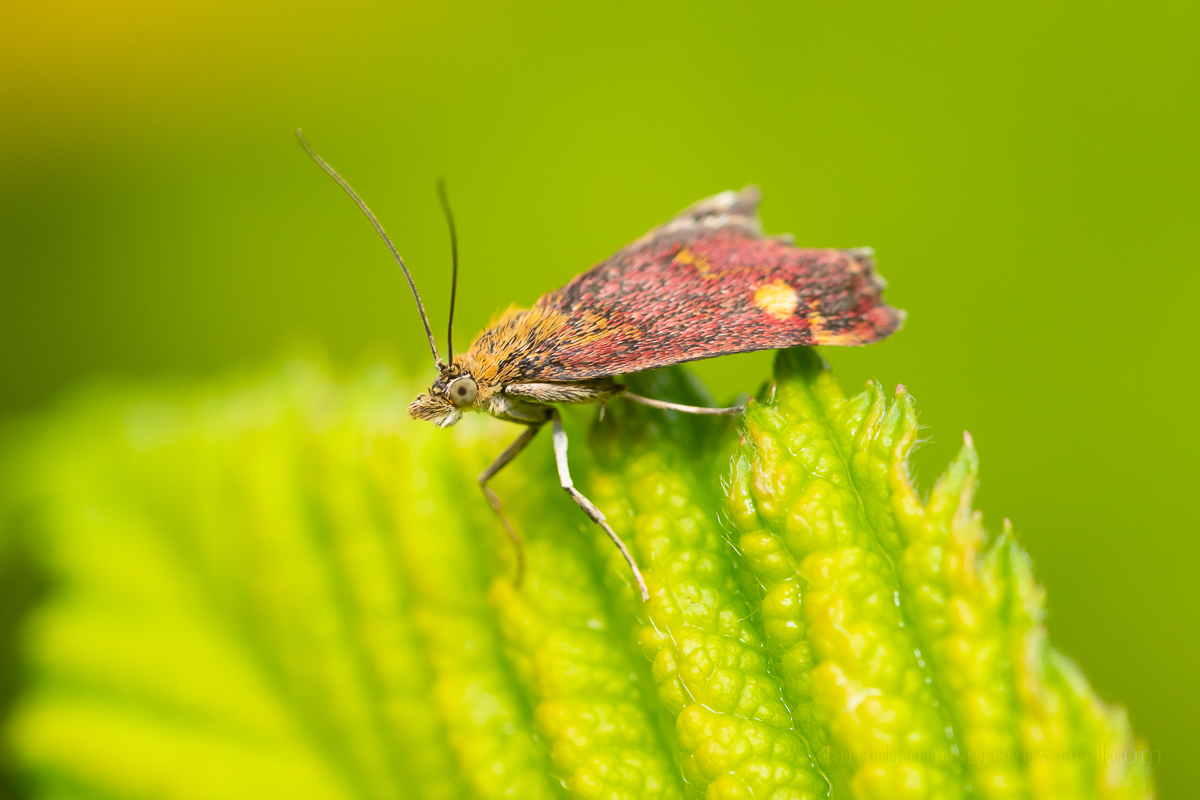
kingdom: Animalia
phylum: Arthropoda
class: Insecta
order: Lepidoptera
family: Crambidae
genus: Pyrausta
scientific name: Pyrausta aurata
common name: Small purple & gold
